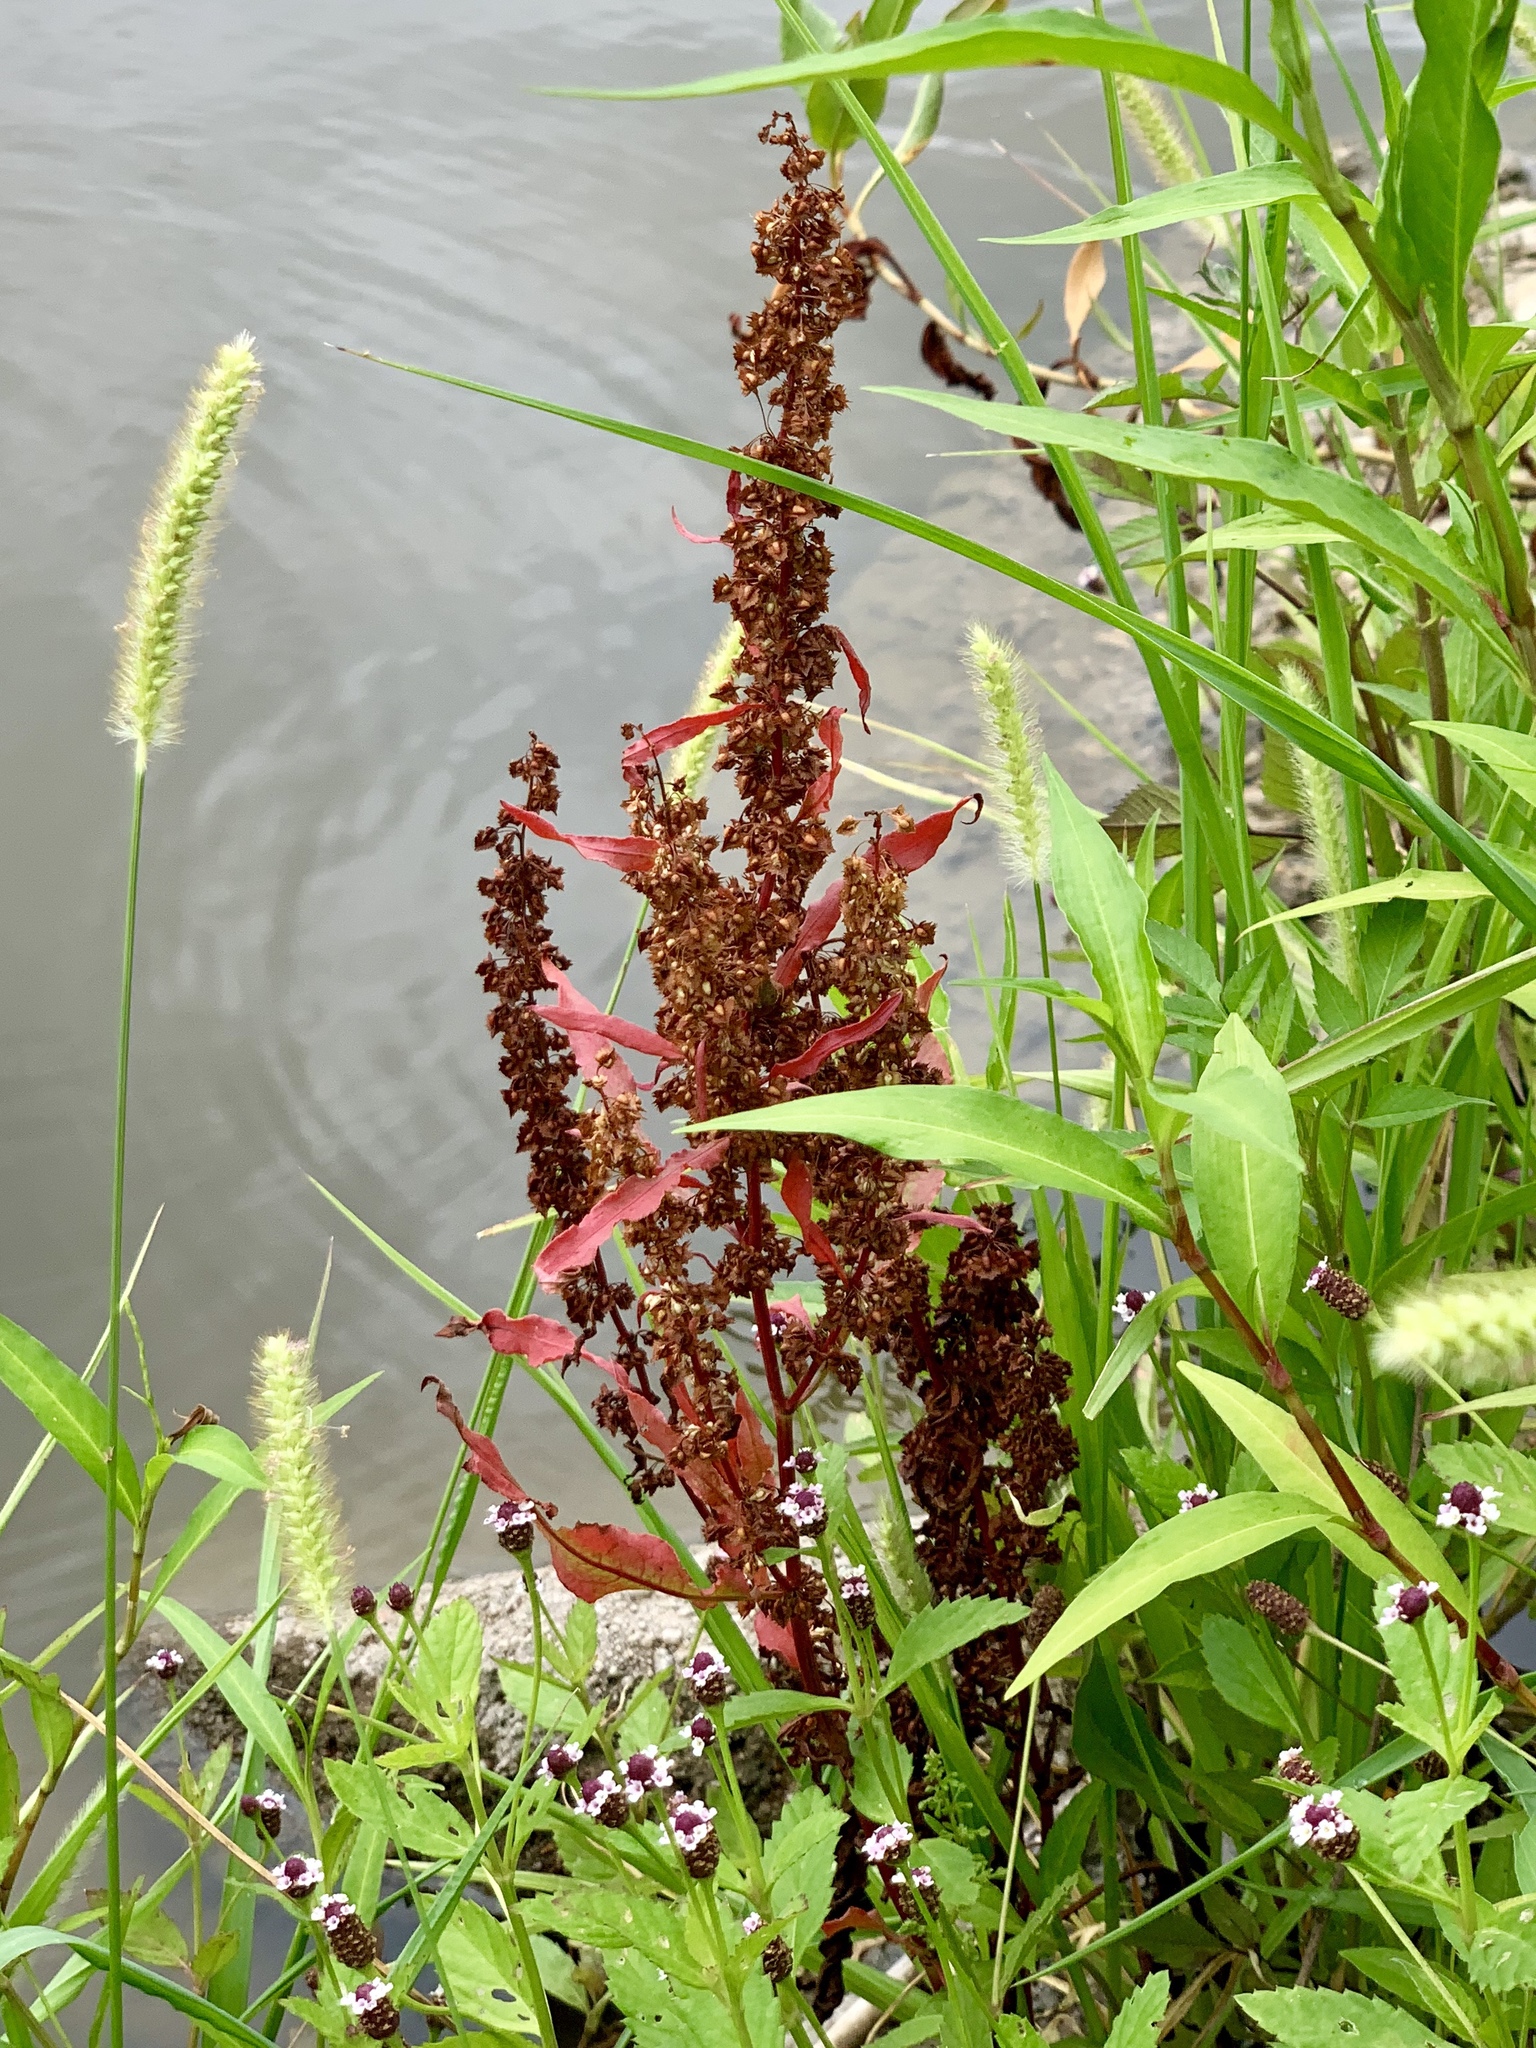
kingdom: Plantae
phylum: Tracheophyta
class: Magnoliopsida
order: Caryophyllales
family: Polygonaceae
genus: Rumex
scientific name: Rumex crispus
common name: Curled dock
